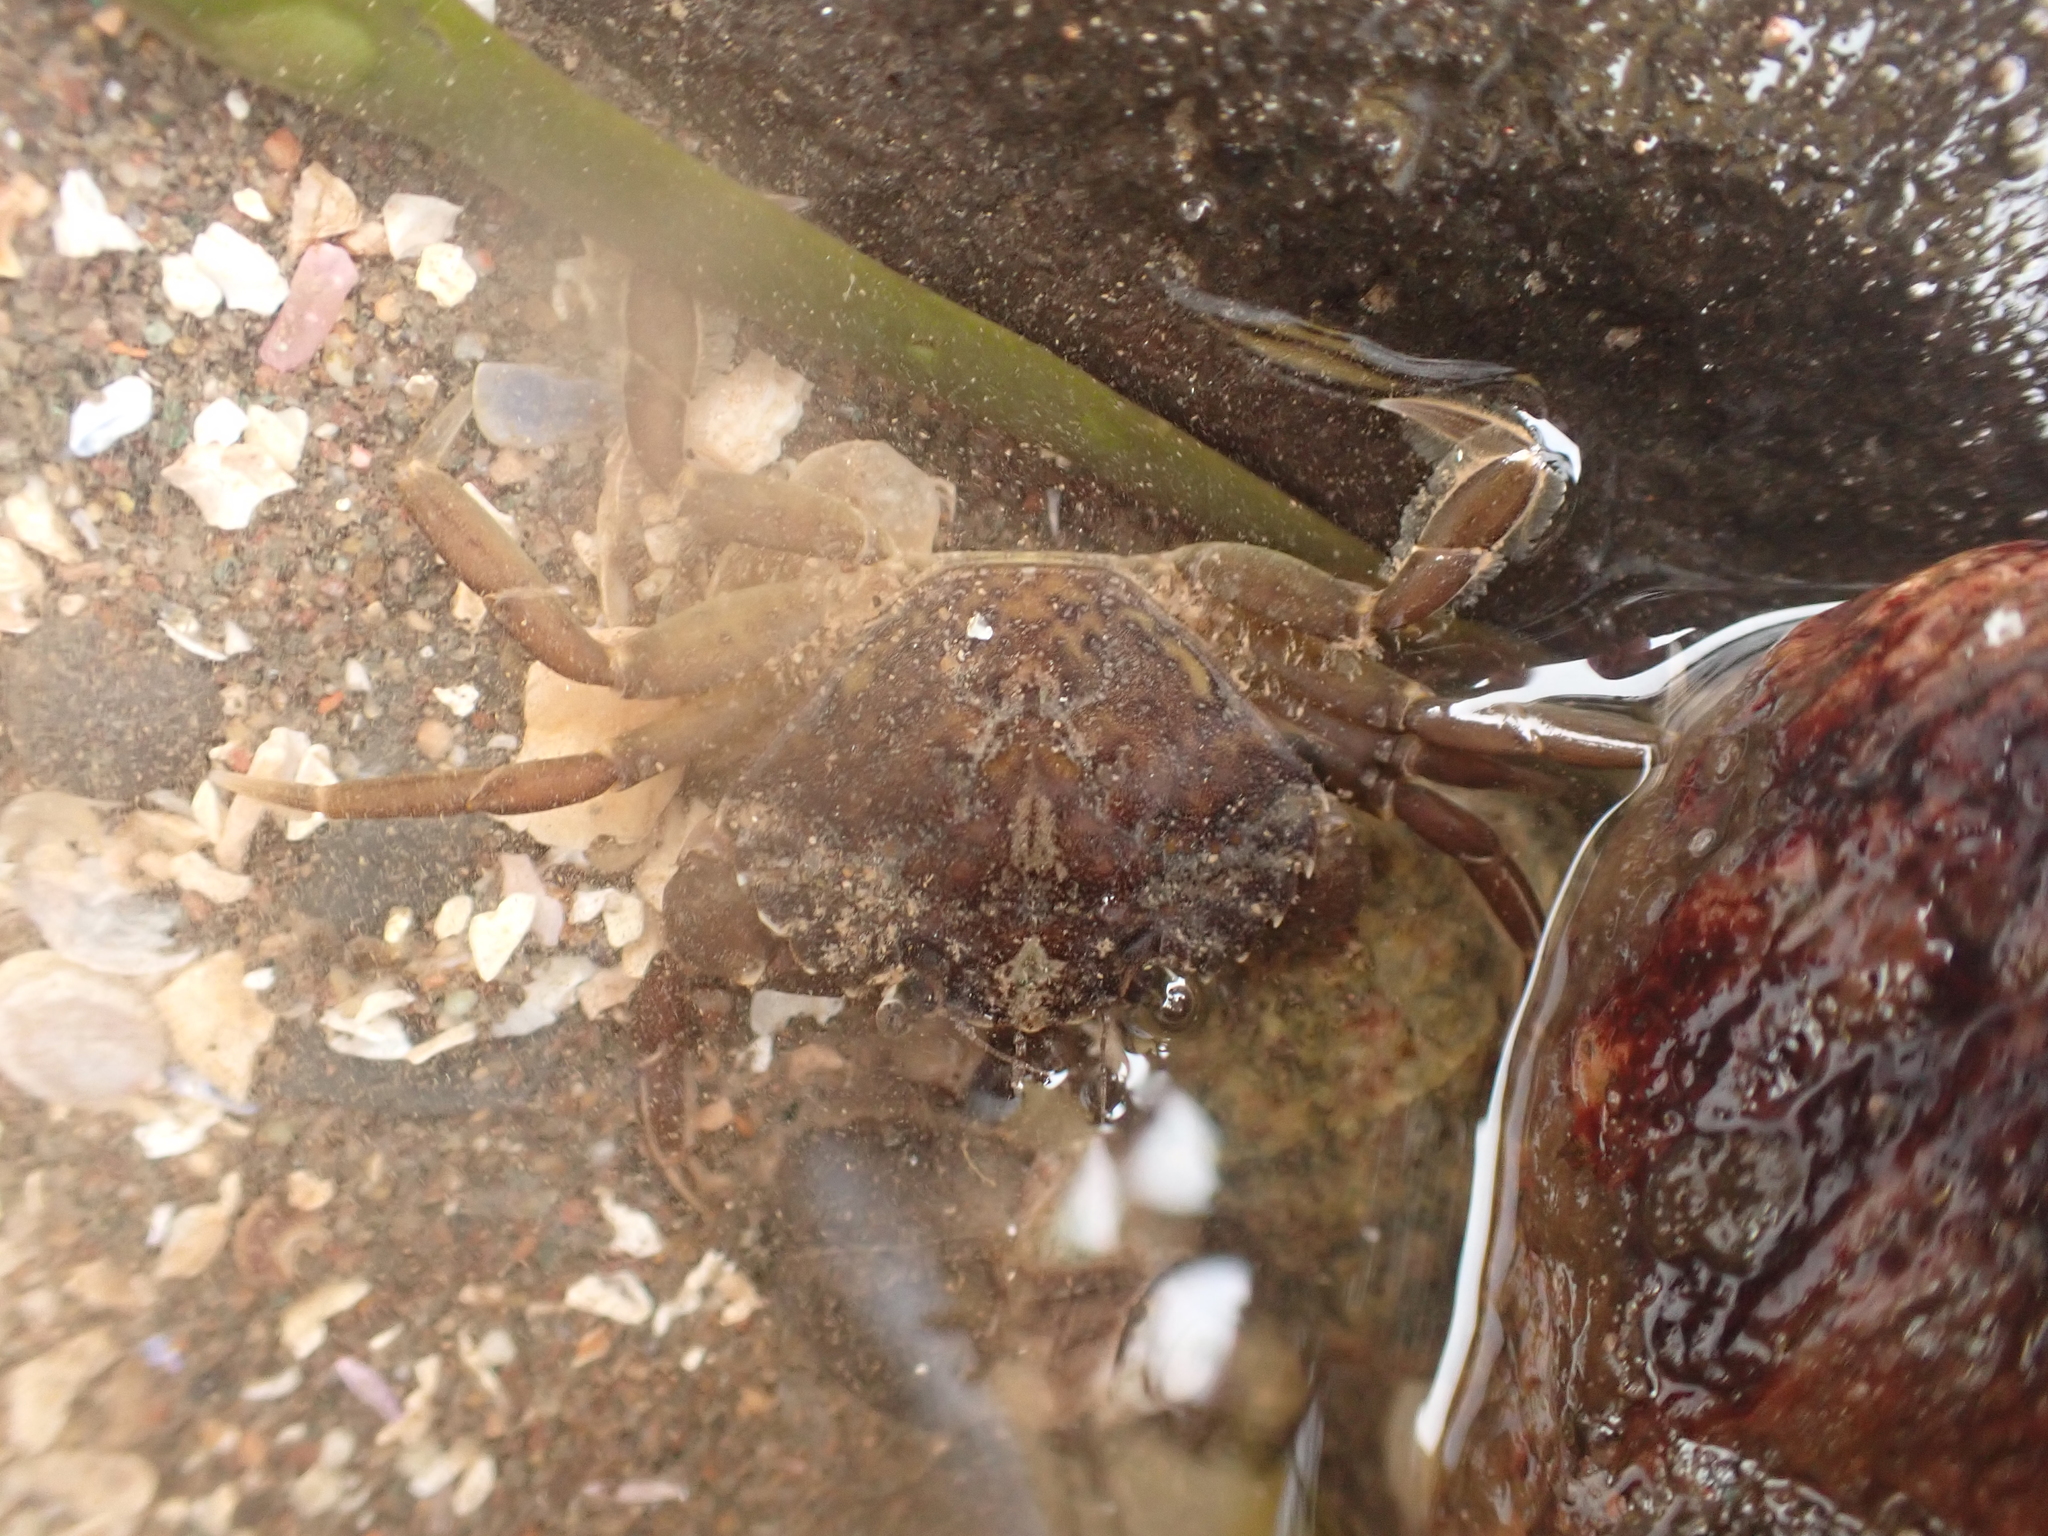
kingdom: Animalia
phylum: Arthropoda
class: Malacostraca
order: Decapoda
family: Carcinidae
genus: Carcinus
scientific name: Carcinus maenas
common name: European green crab
